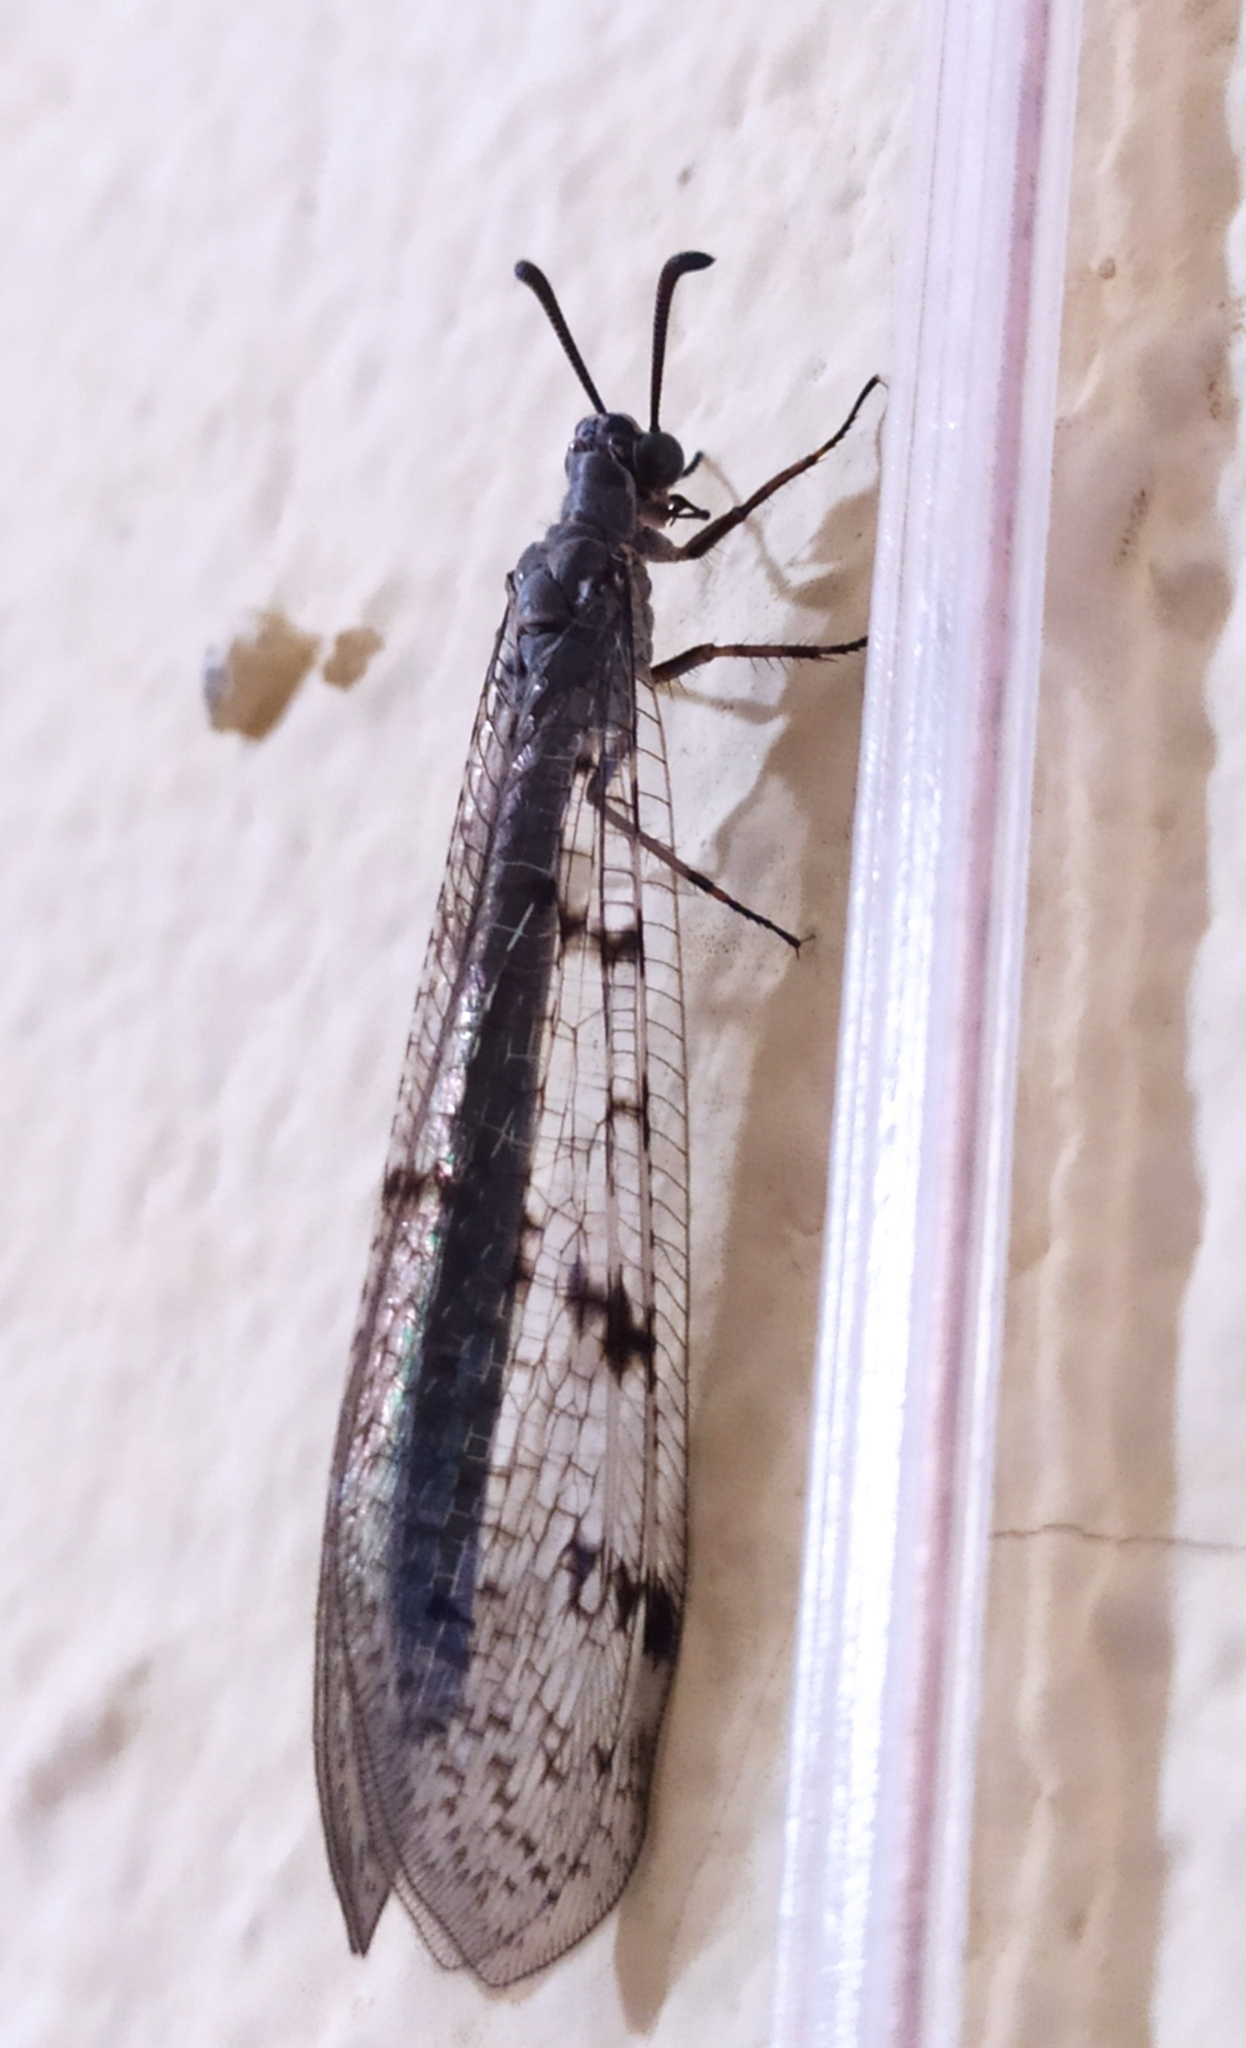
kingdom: Animalia
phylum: Arthropoda
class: Insecta
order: Neuroptera
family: Myrmeleontidae
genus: Euroleon
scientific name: Euroleon nostras
